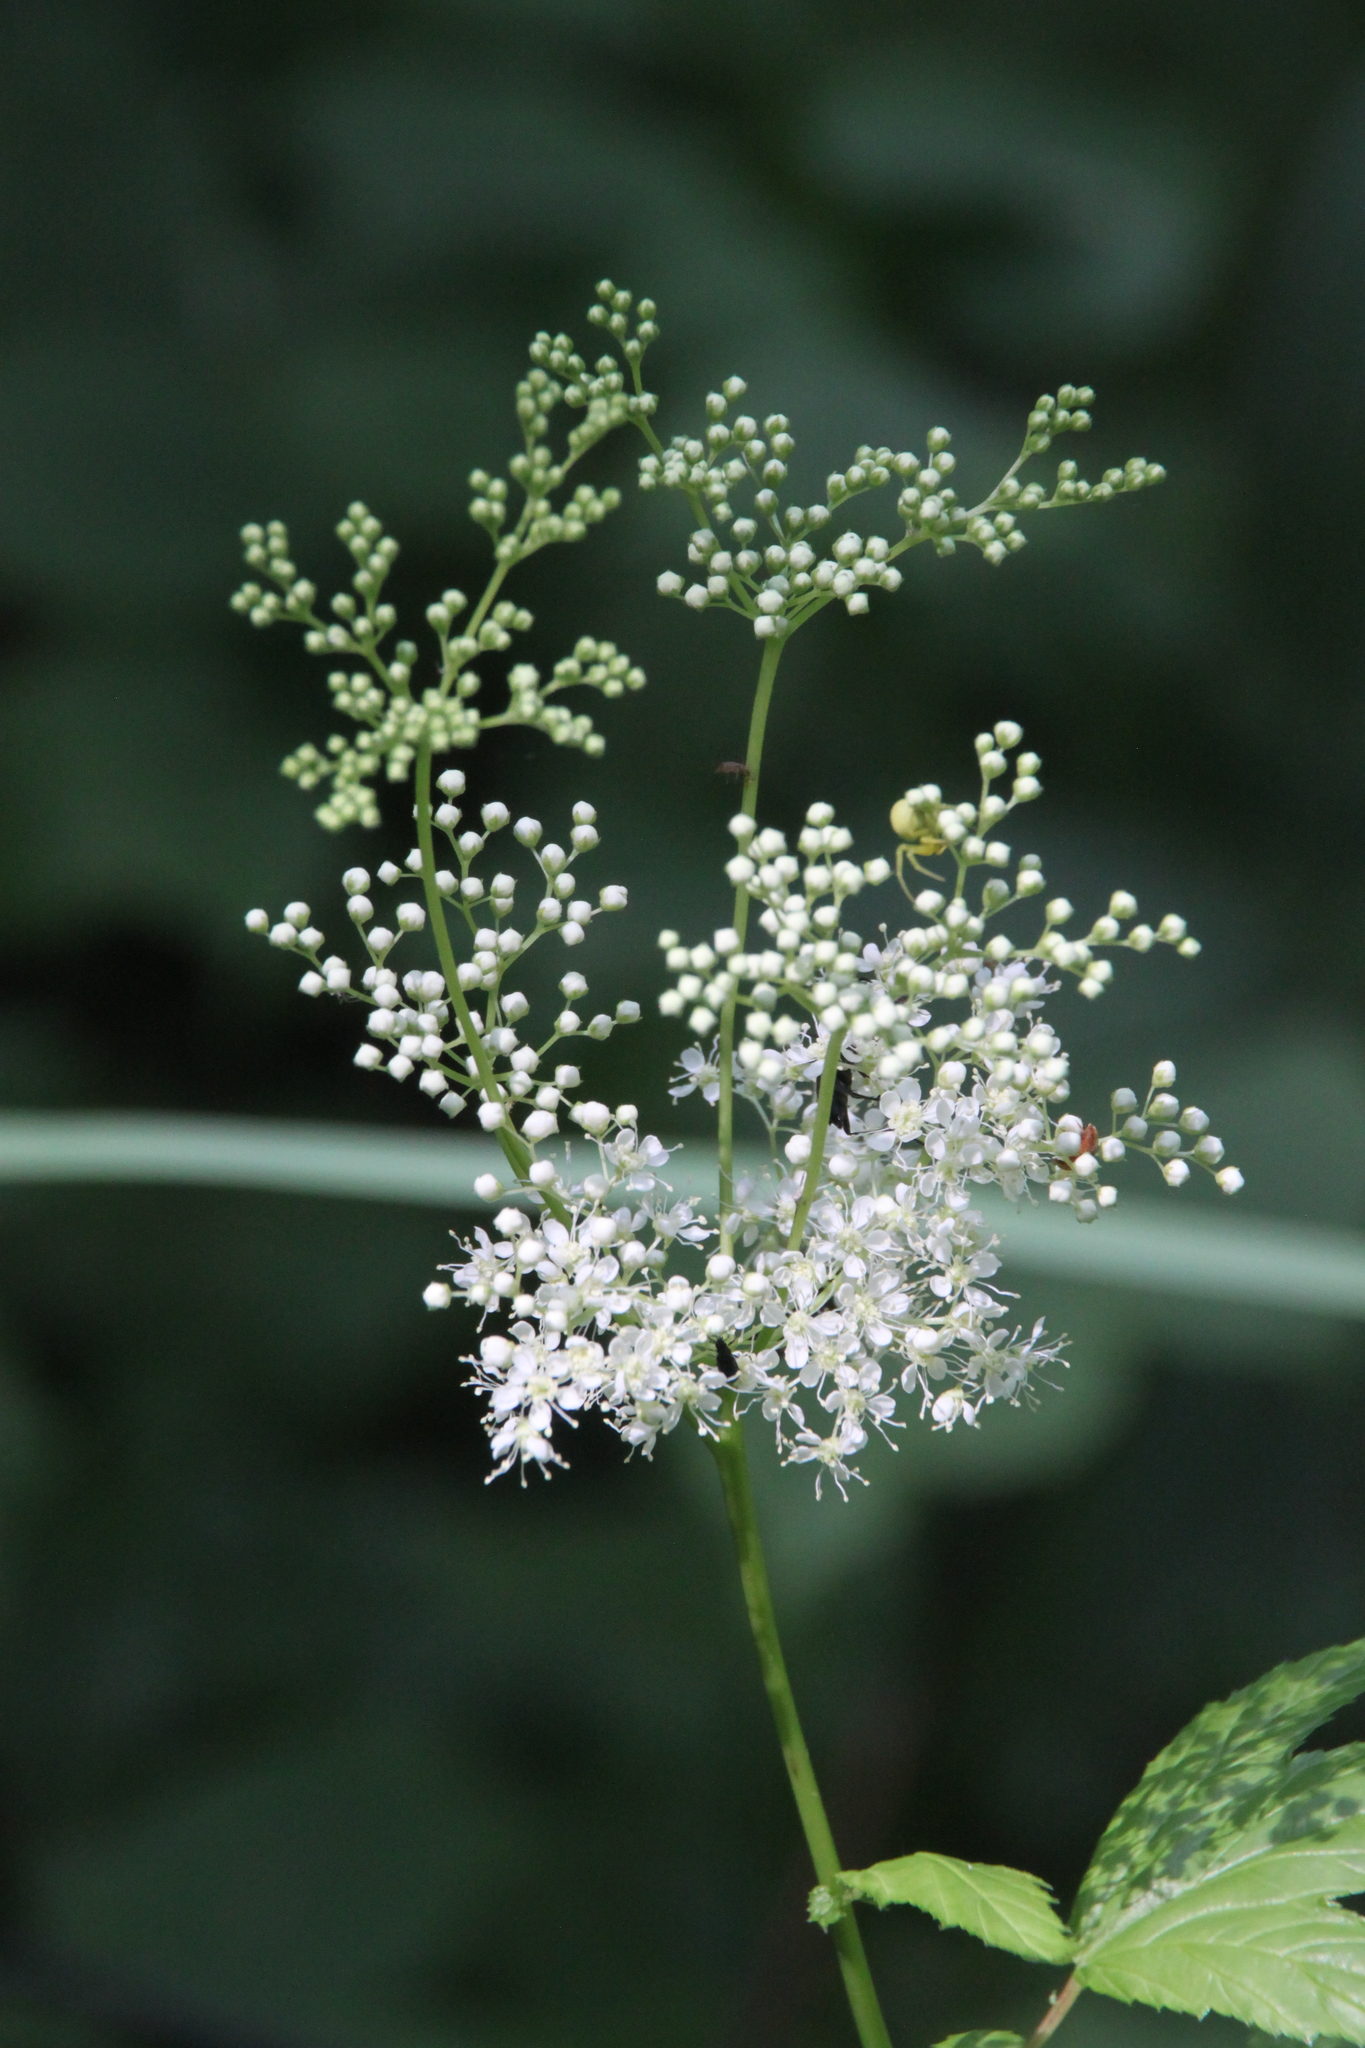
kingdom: Plantae
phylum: Tracheophyta
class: Magnoliopsida
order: Rosales
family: Rosaceae
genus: Filipendula
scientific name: Filipendula ulmaria
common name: Meadowsweet
